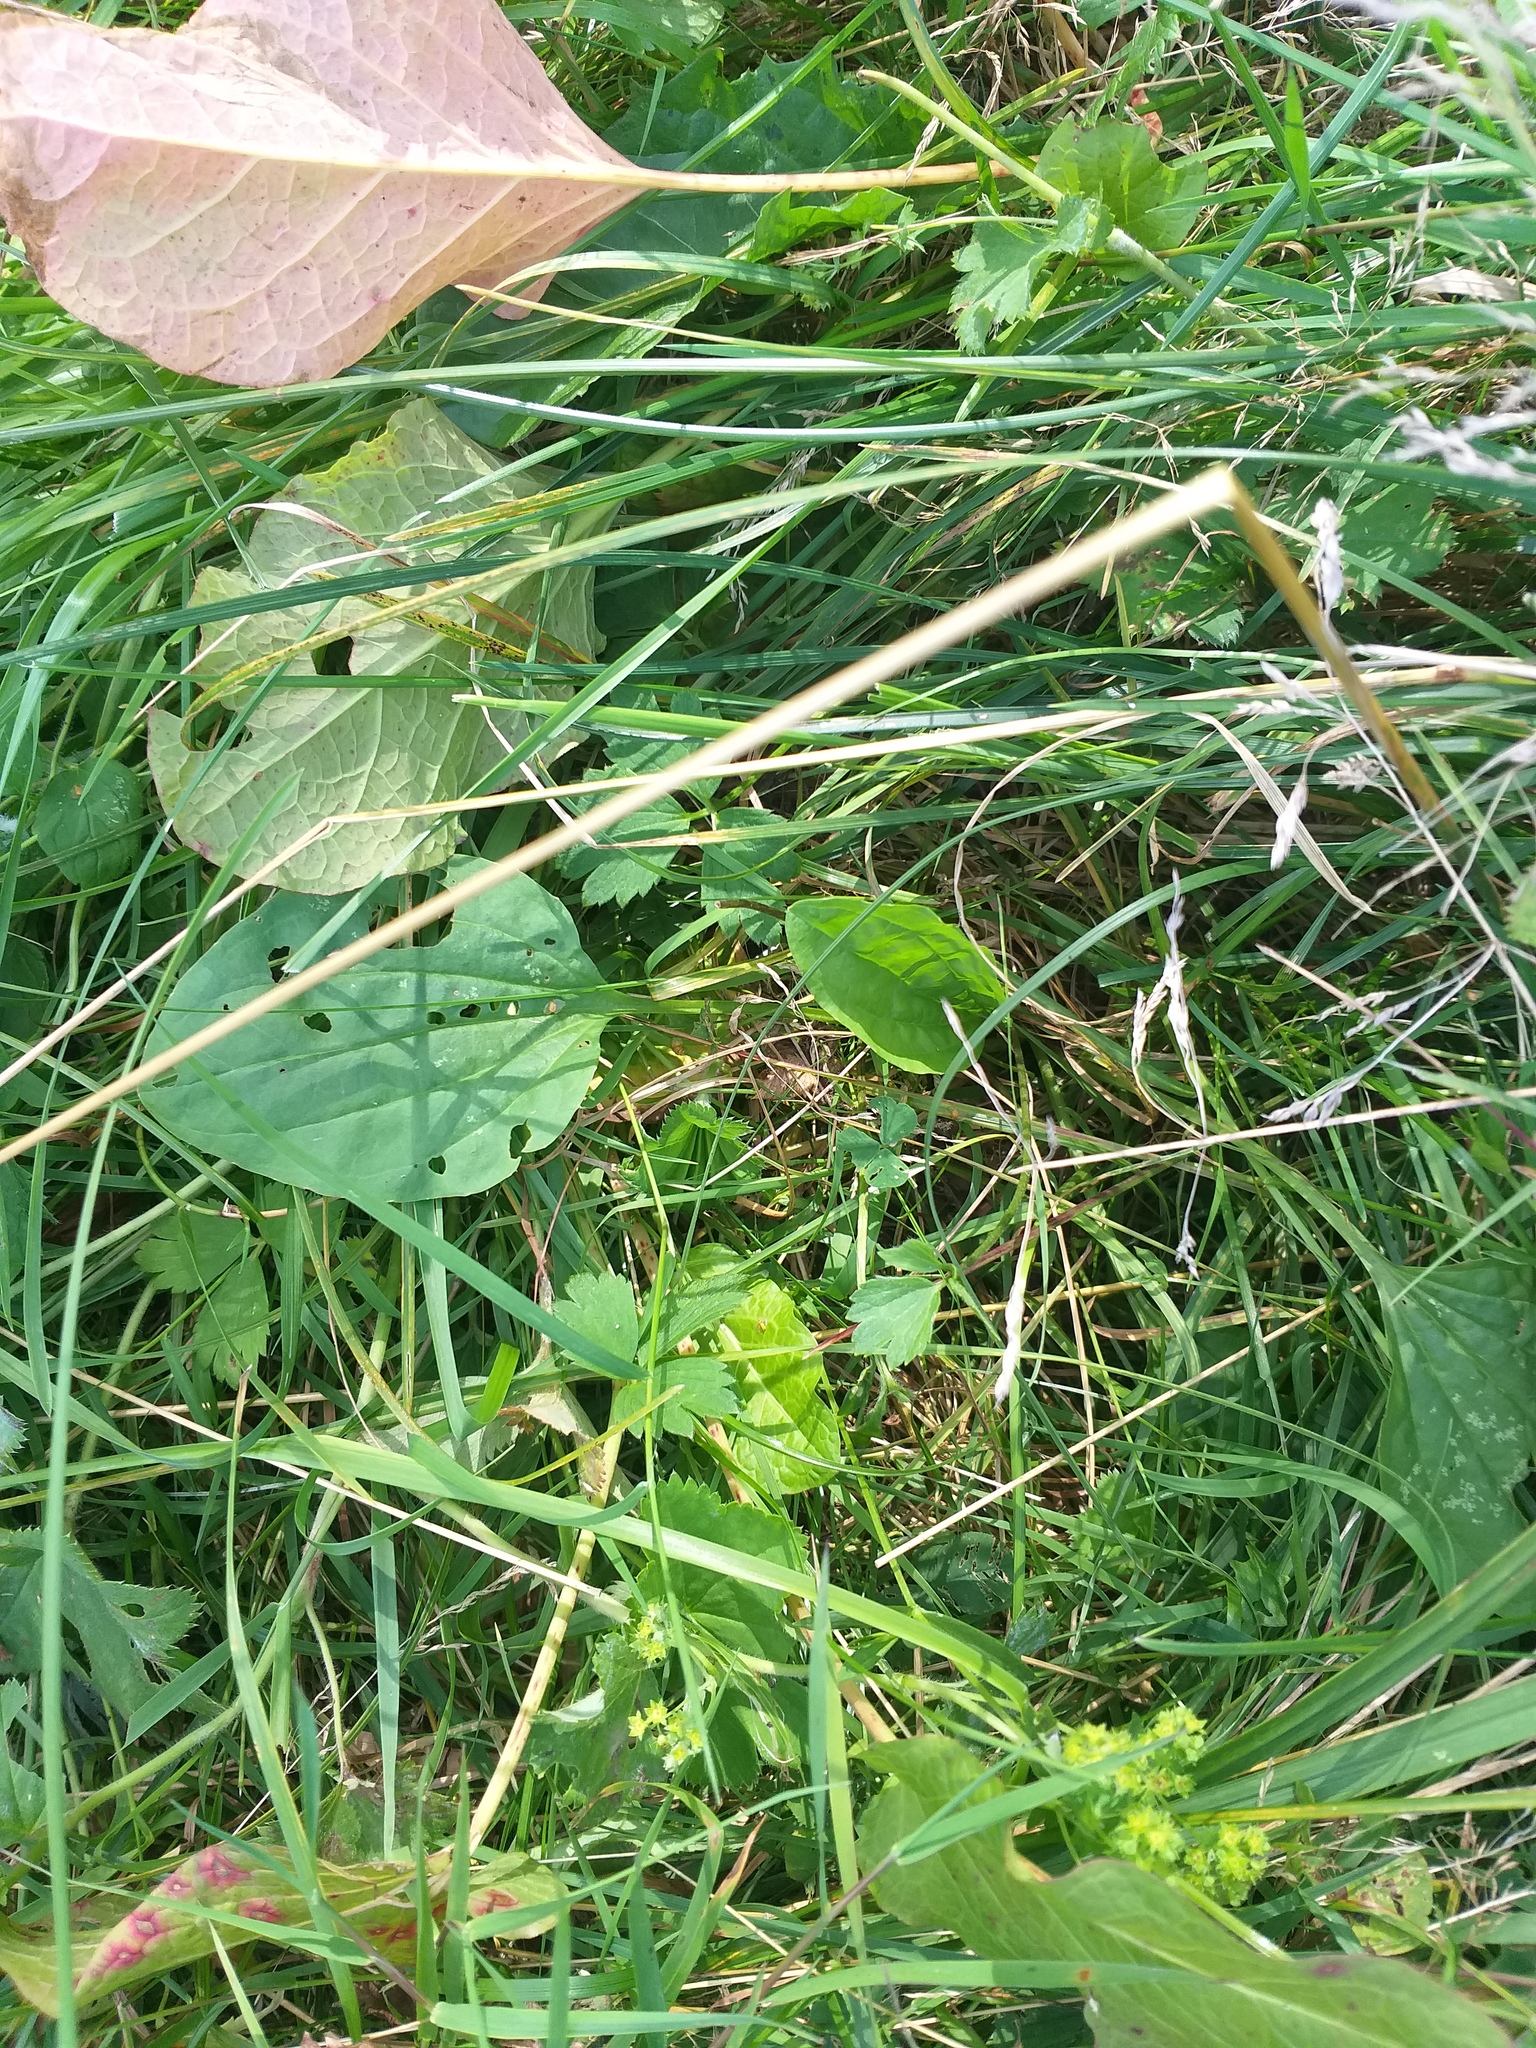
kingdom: Plantae
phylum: Tracheophyta
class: Magnoliopsida
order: Lamiales
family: Plantaginaceae
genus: Plantago
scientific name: Plantago major
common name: Common plantain
